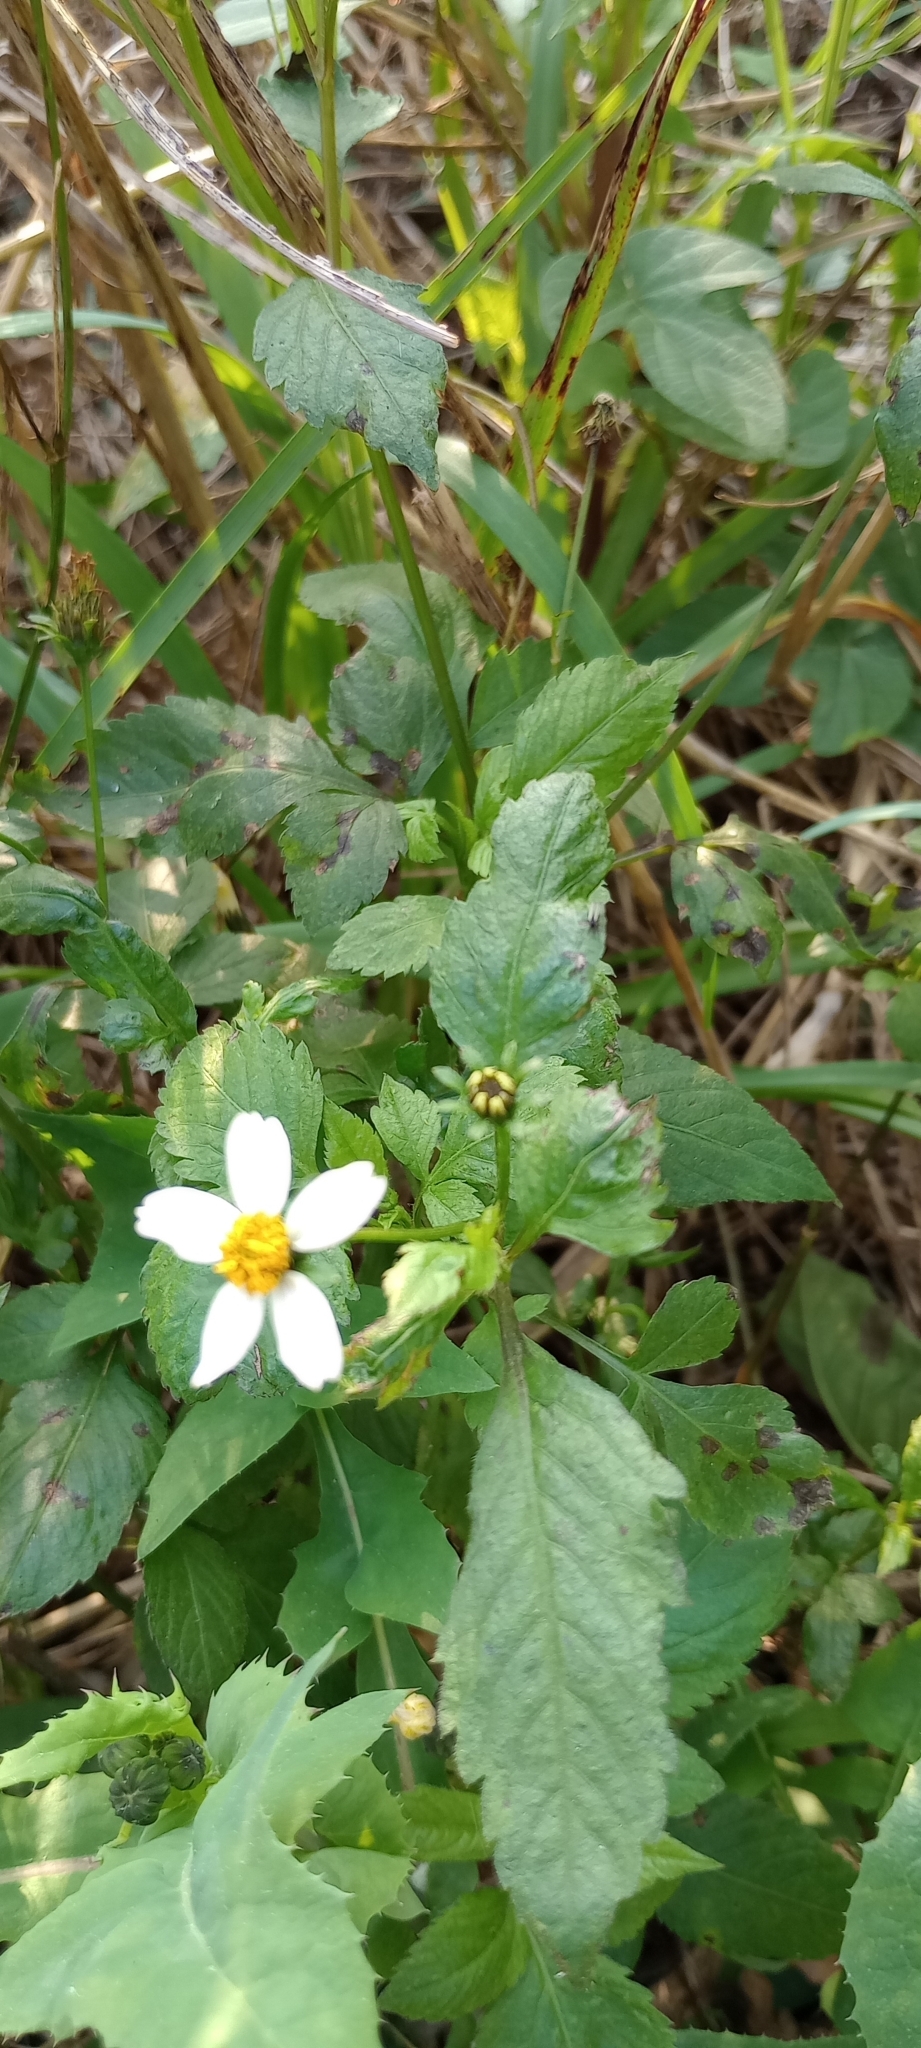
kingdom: Plantae
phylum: Tracheophyta
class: Magnoliopsida
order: Asterales
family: Asteraceae
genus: Bidens
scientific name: Bidens pilosa
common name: Black-jack
